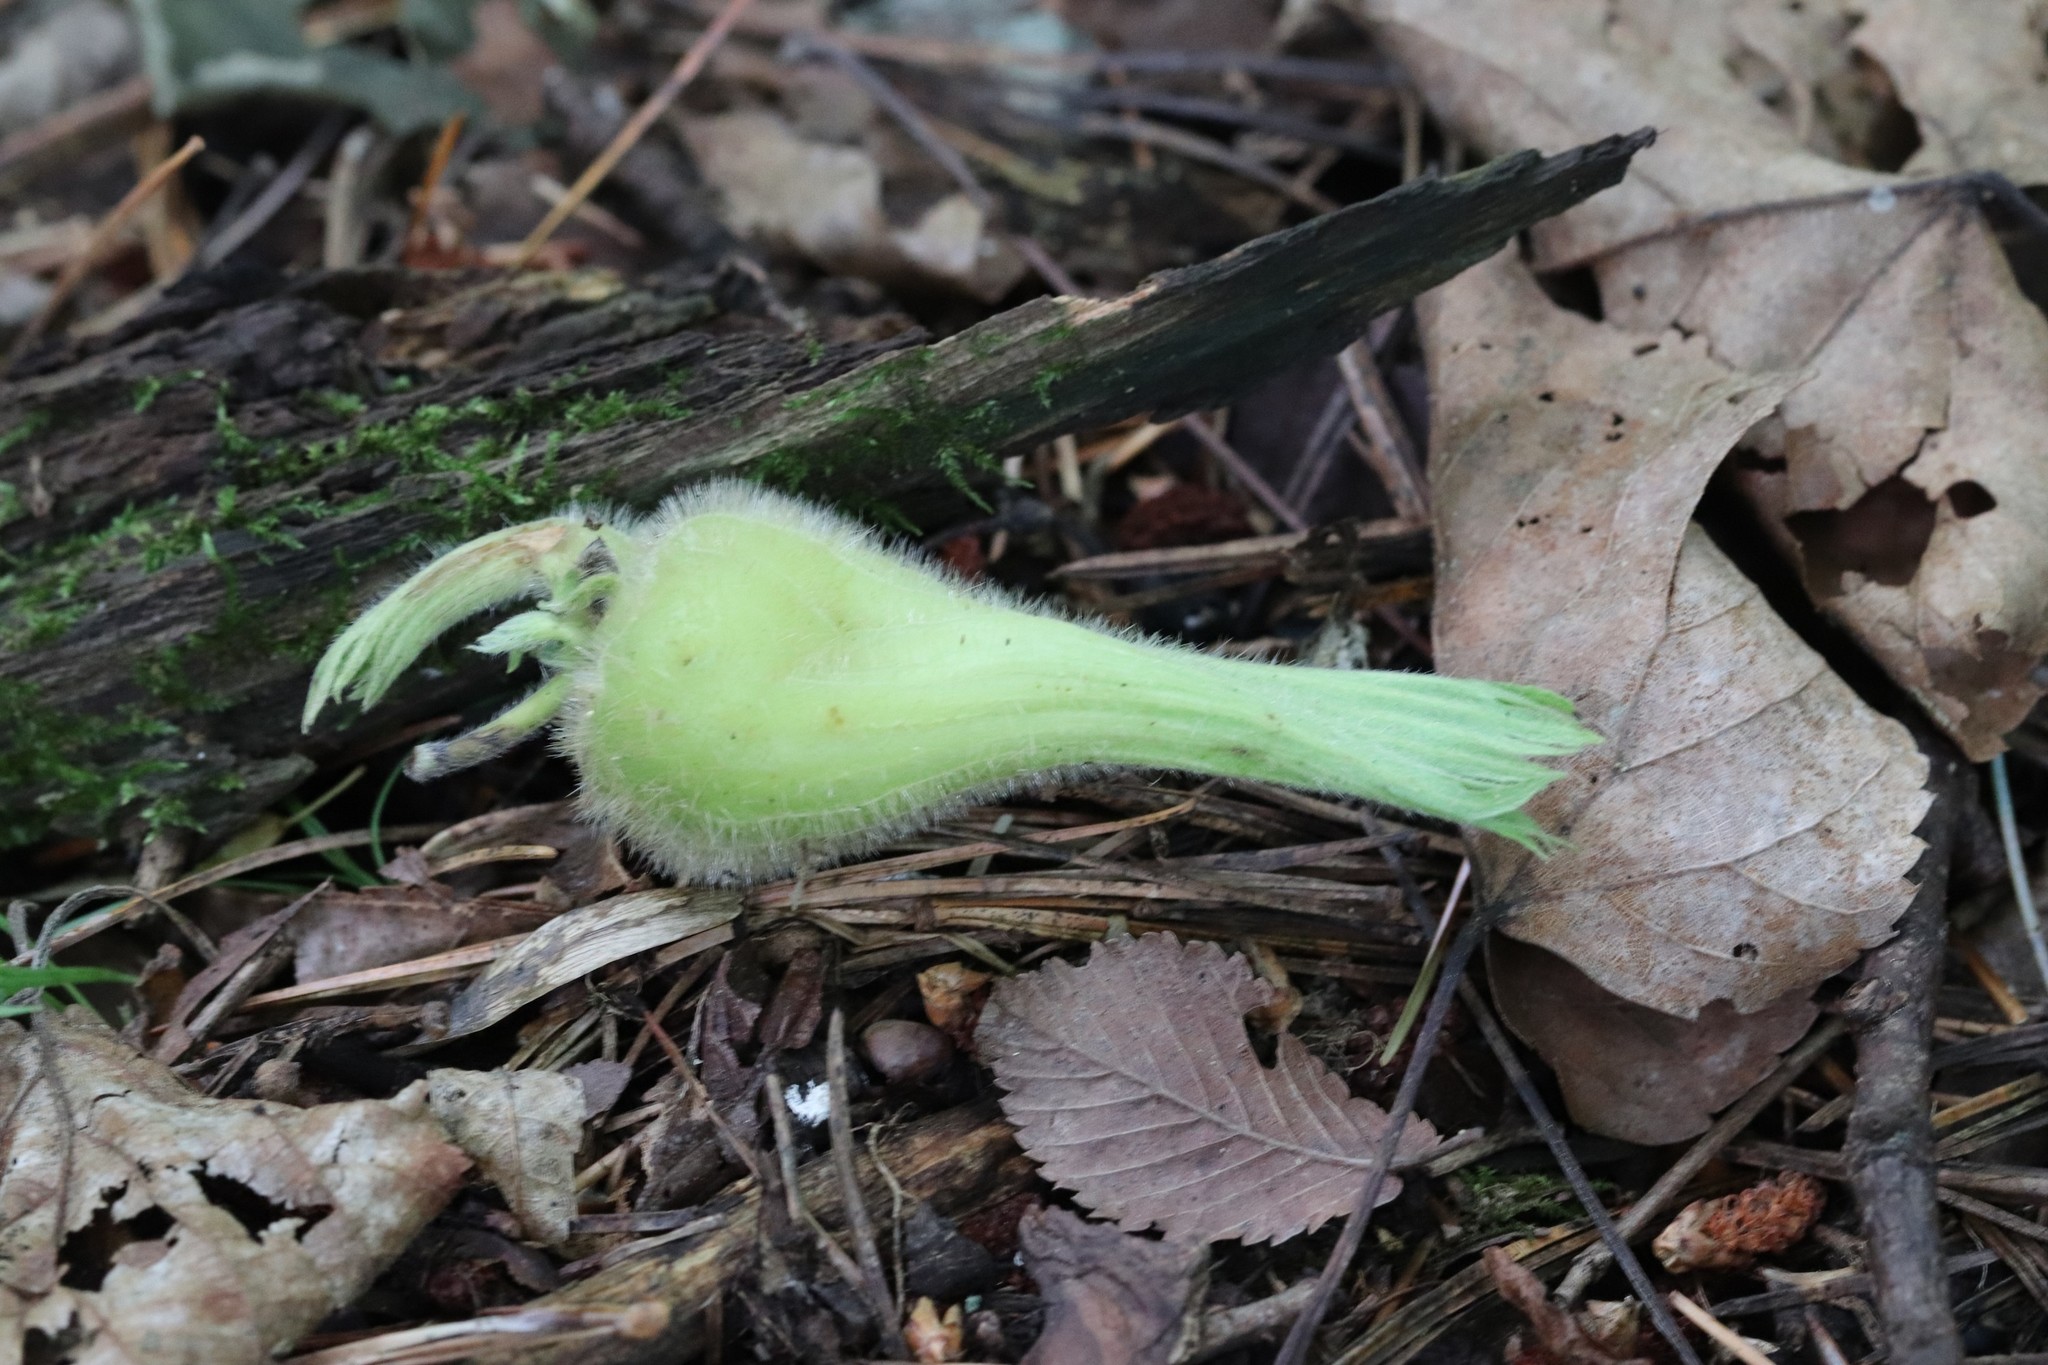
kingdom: Plantae
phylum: Tracheophyta
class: Magnoliopsida
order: Fagales
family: Betulaceae
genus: Corylus
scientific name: Corylus sieboldiana
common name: Japanese hazel
